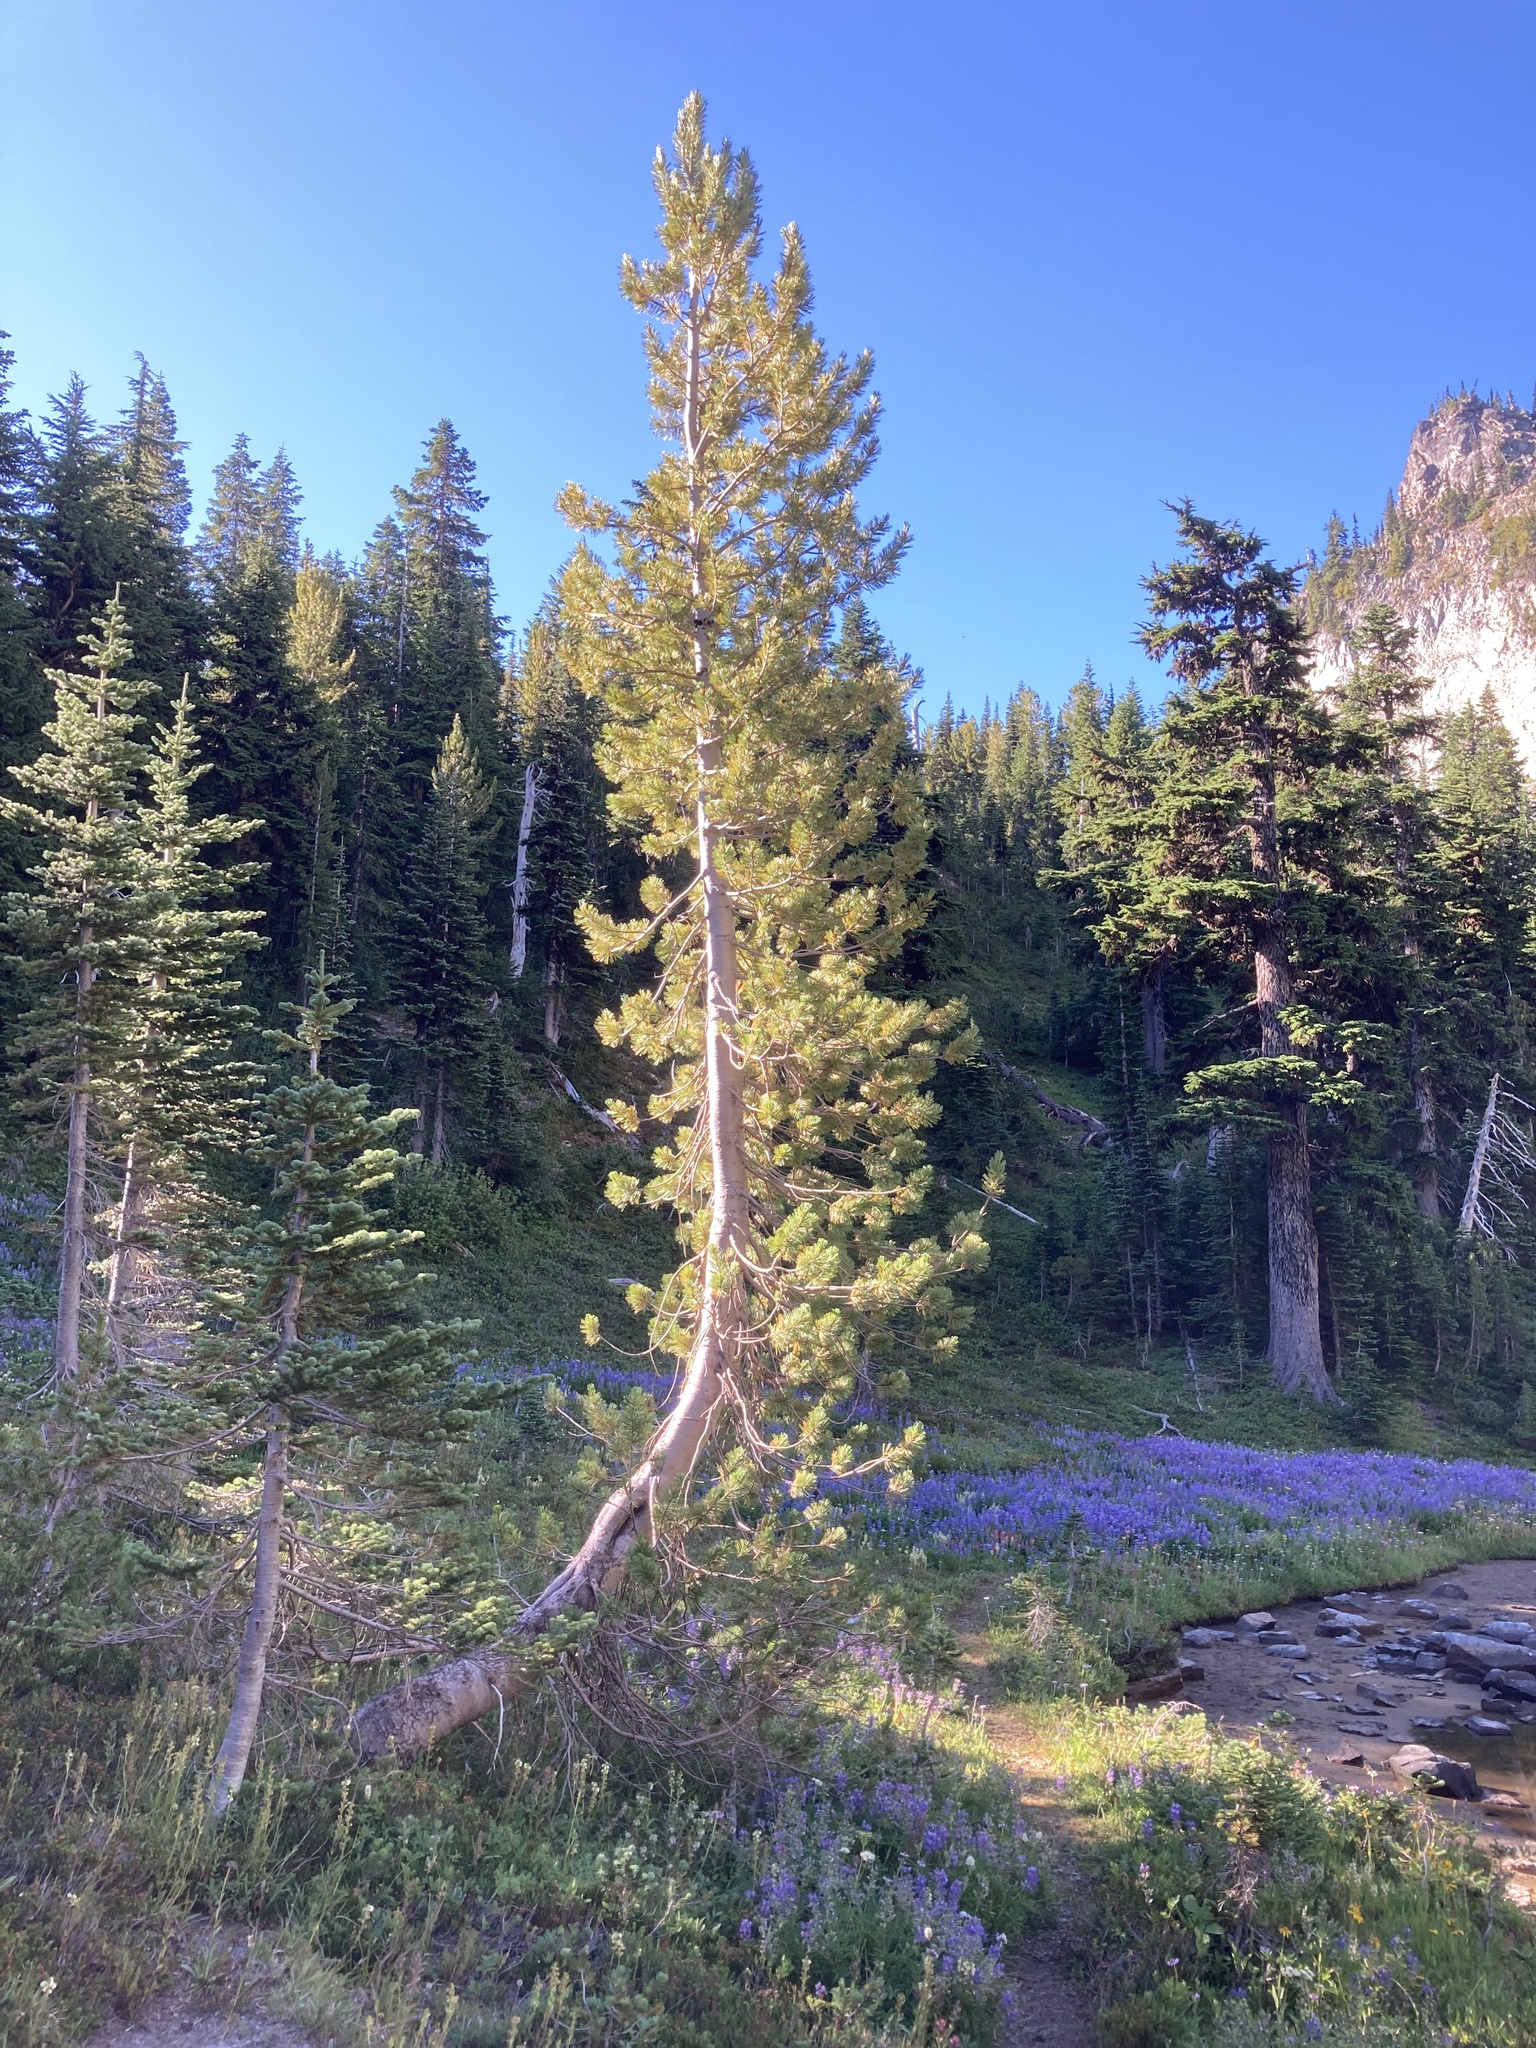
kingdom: Plantae
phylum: Tracheophyta
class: Pinopsida
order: Pinales
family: Pinaceae
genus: Pinus
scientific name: Pinus monticola
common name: Western white pine
